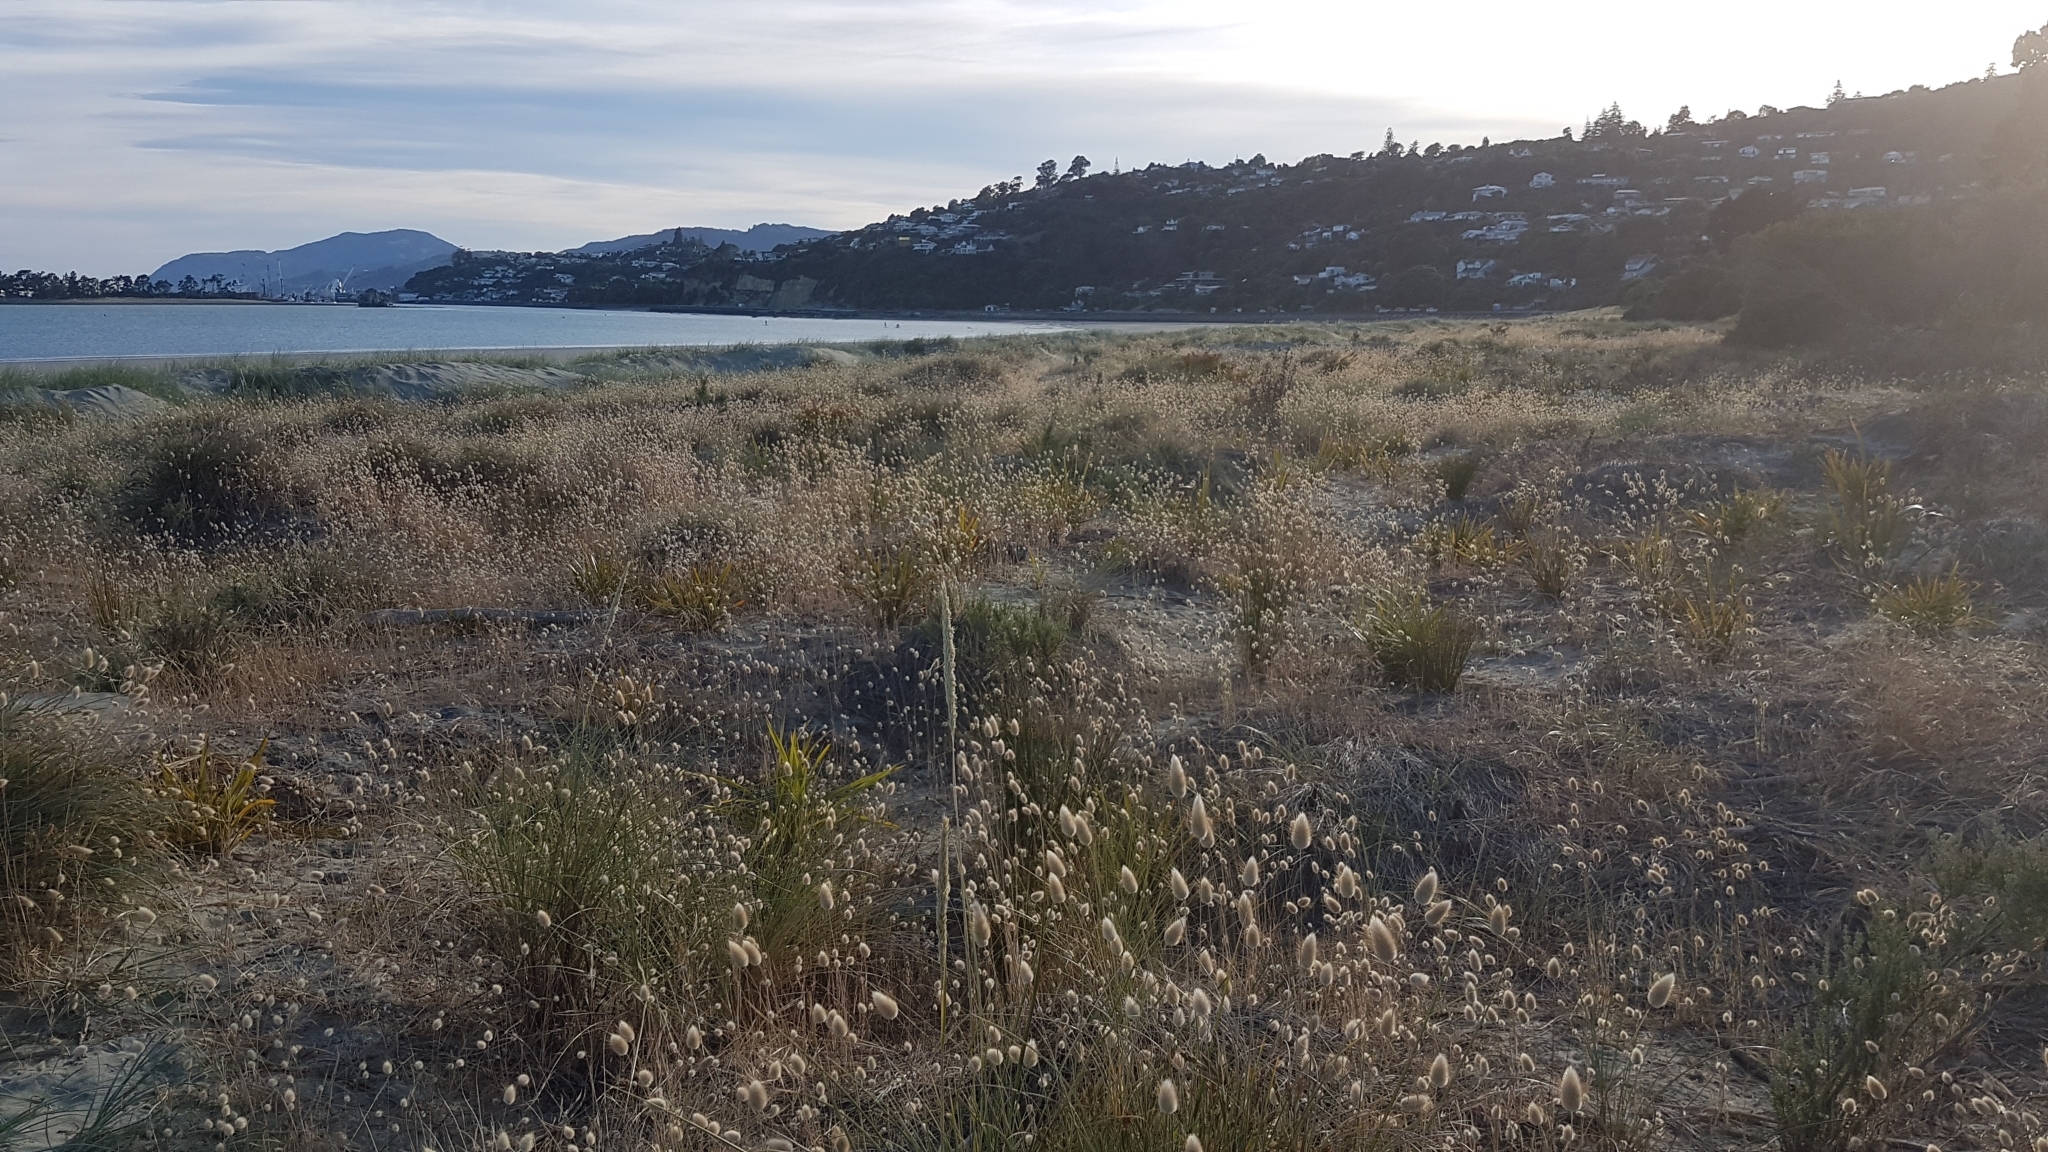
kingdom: Plantae
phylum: Tracheophyta
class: Liliopsida
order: Poales
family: Poaceae
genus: Lagurus
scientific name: Lagurus ovatus
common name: Hare's-tail
